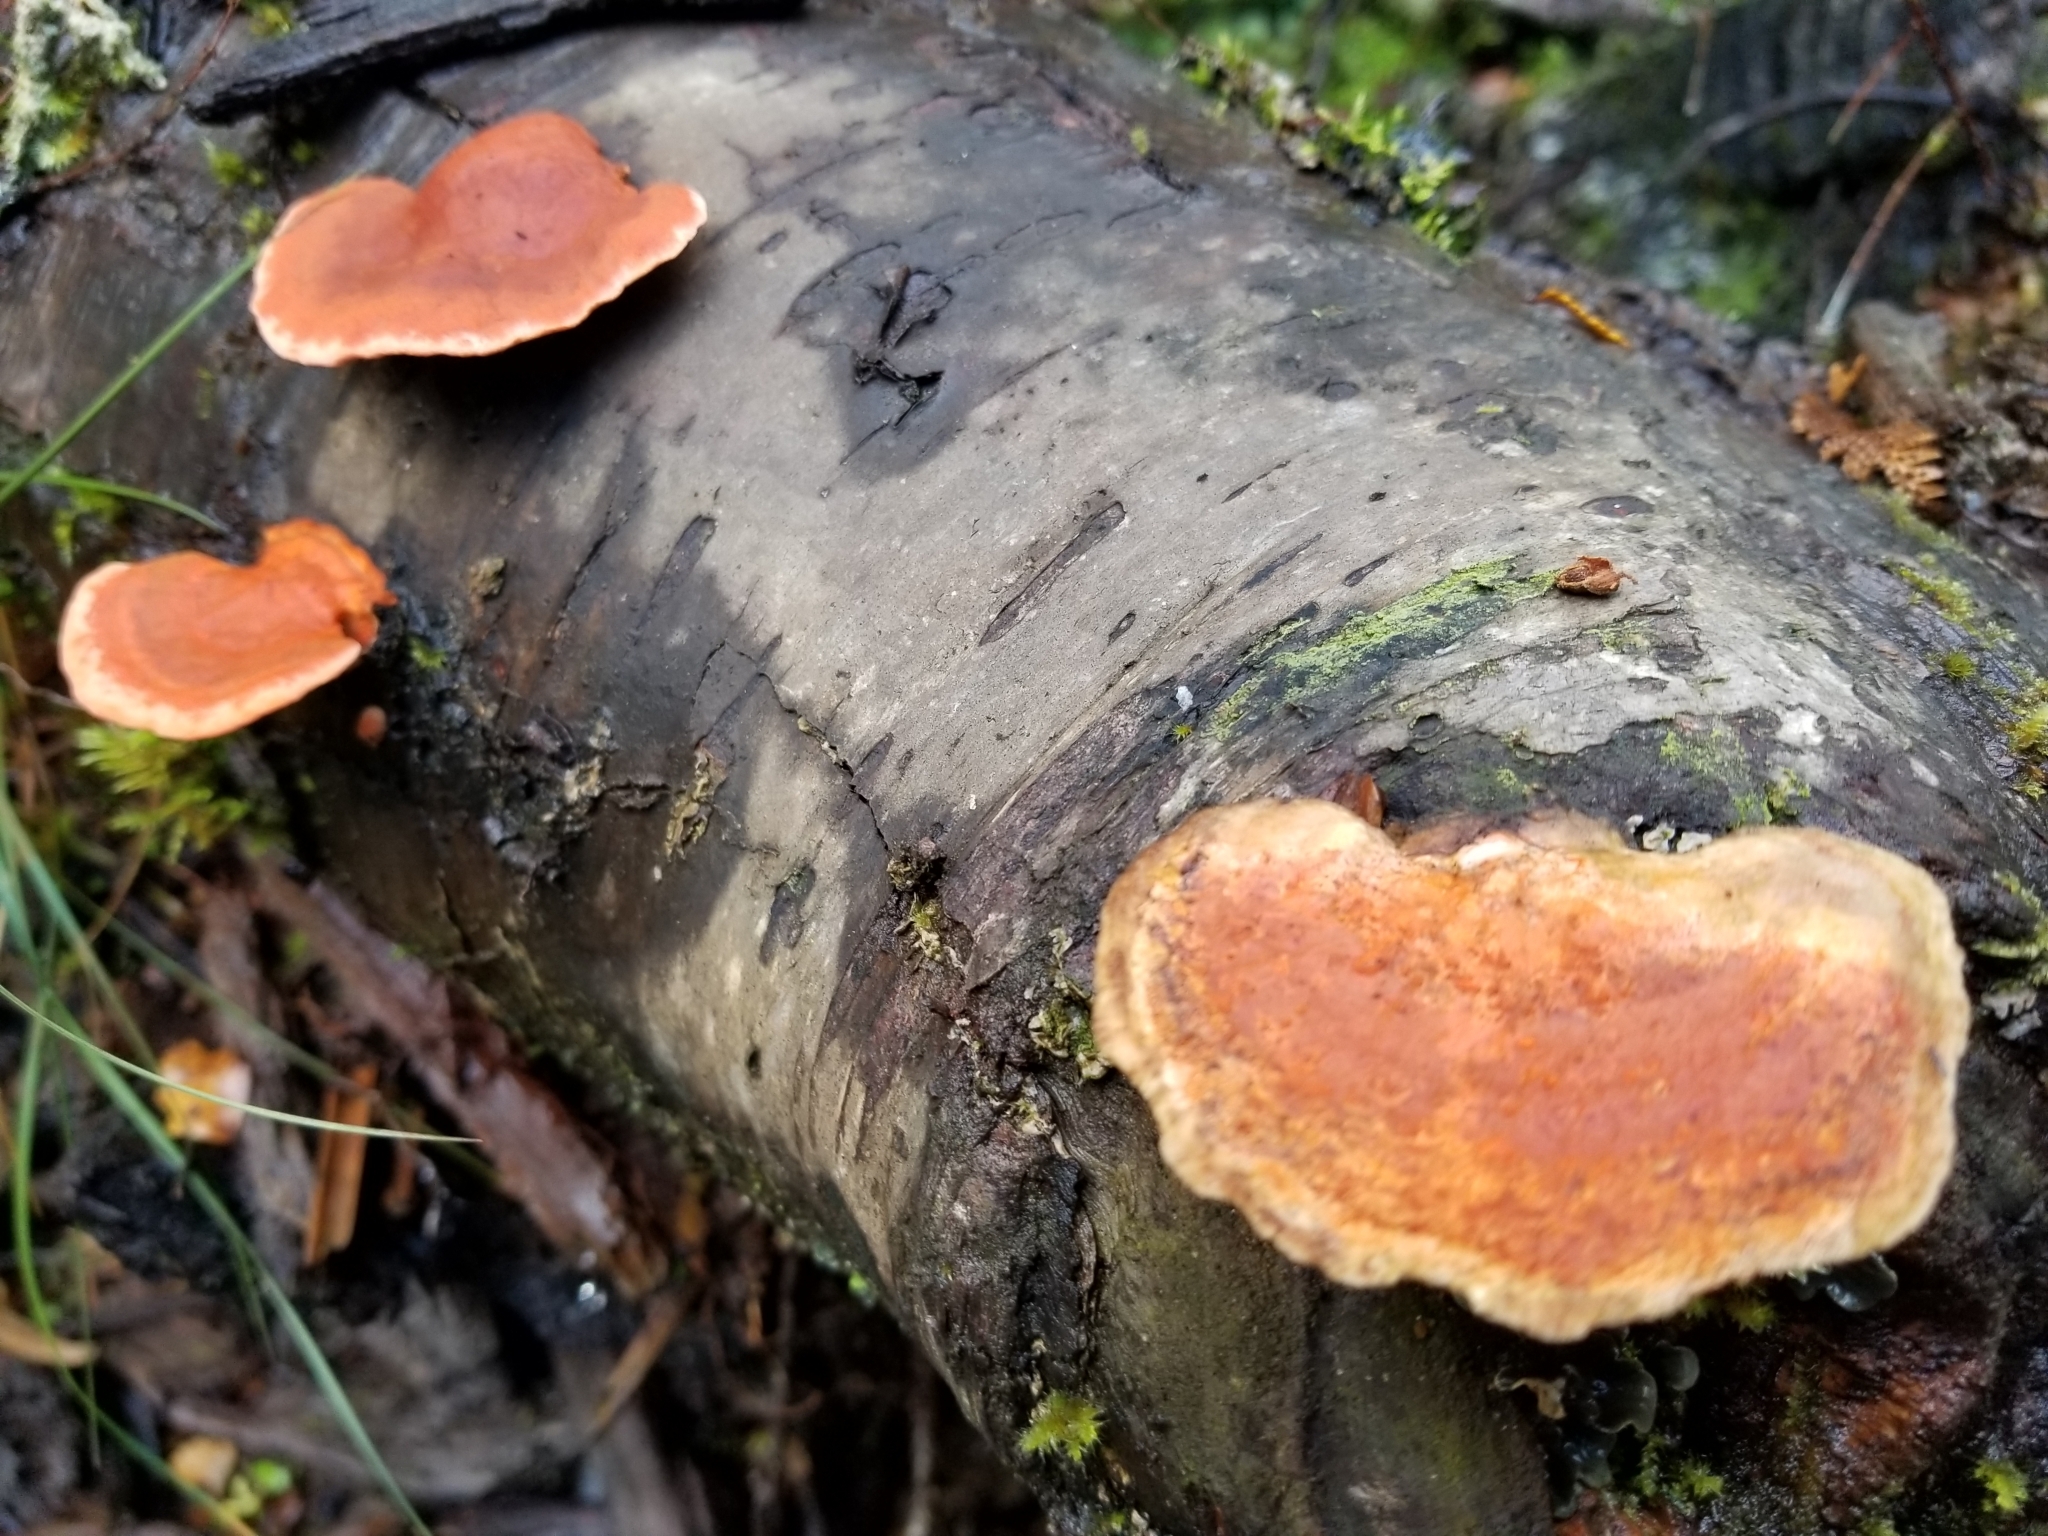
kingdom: Fungi
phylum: Basidiomycota
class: Agaricomycetes
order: Polyporales
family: Polyporaceae
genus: Trametes
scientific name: Trametes coccinea
